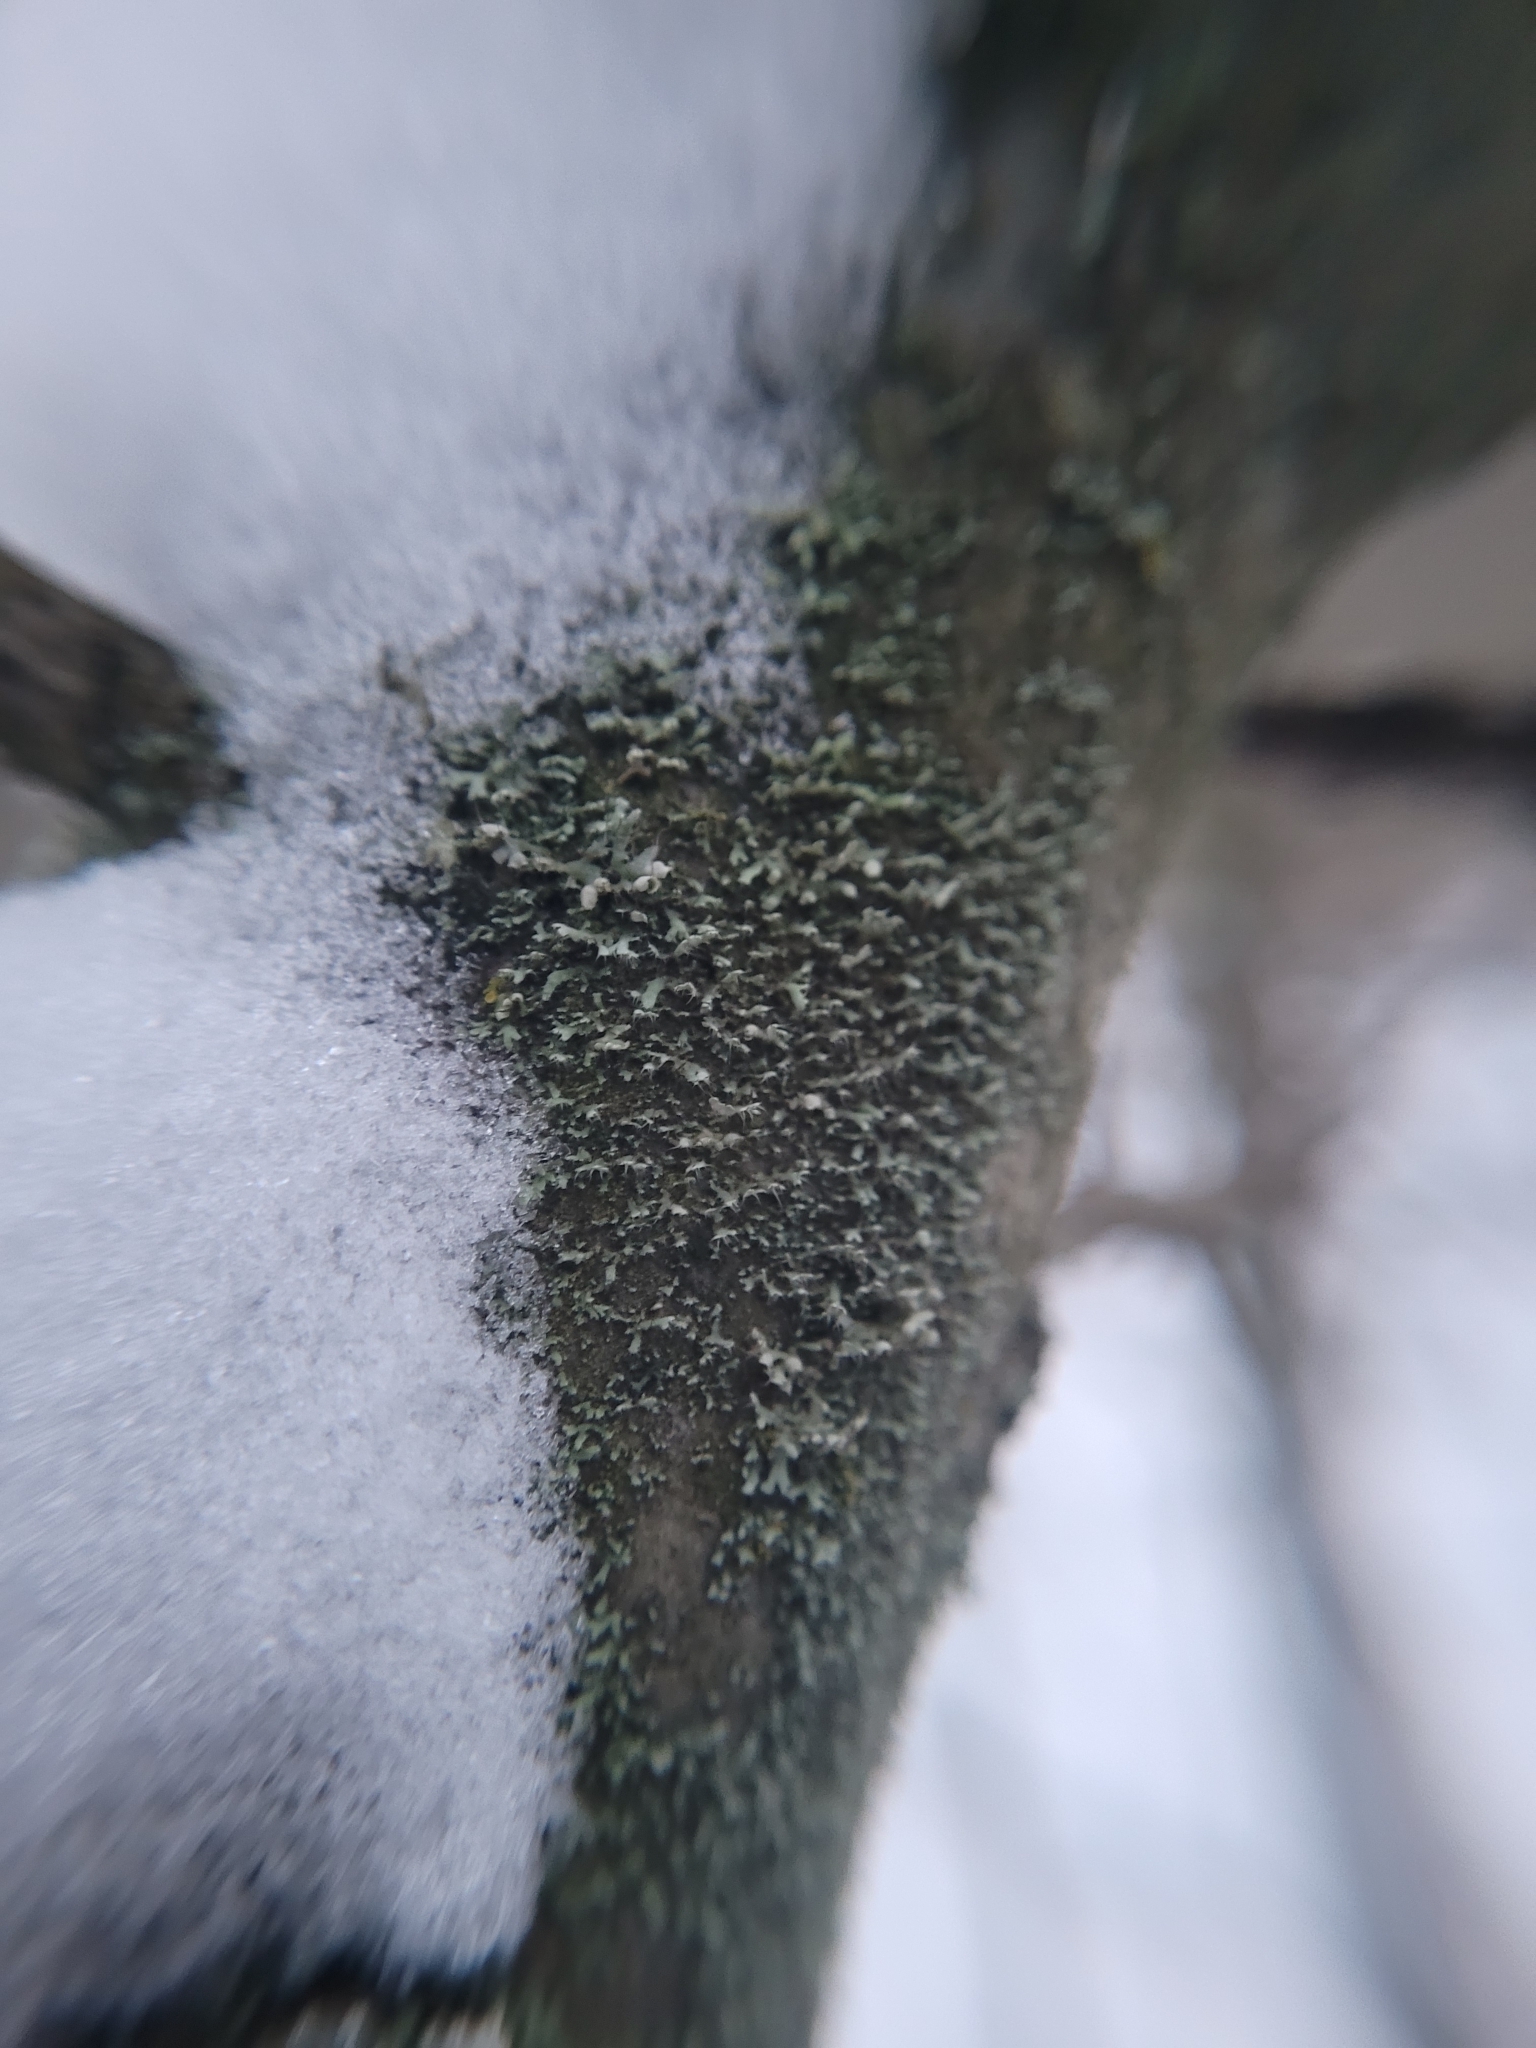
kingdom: Fungi
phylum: Ascomycota
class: Lecanoromycetes
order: Caliciales
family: Physciaceae
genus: Physcia
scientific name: Physcia adscendens
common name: Hooded rosette lichen
